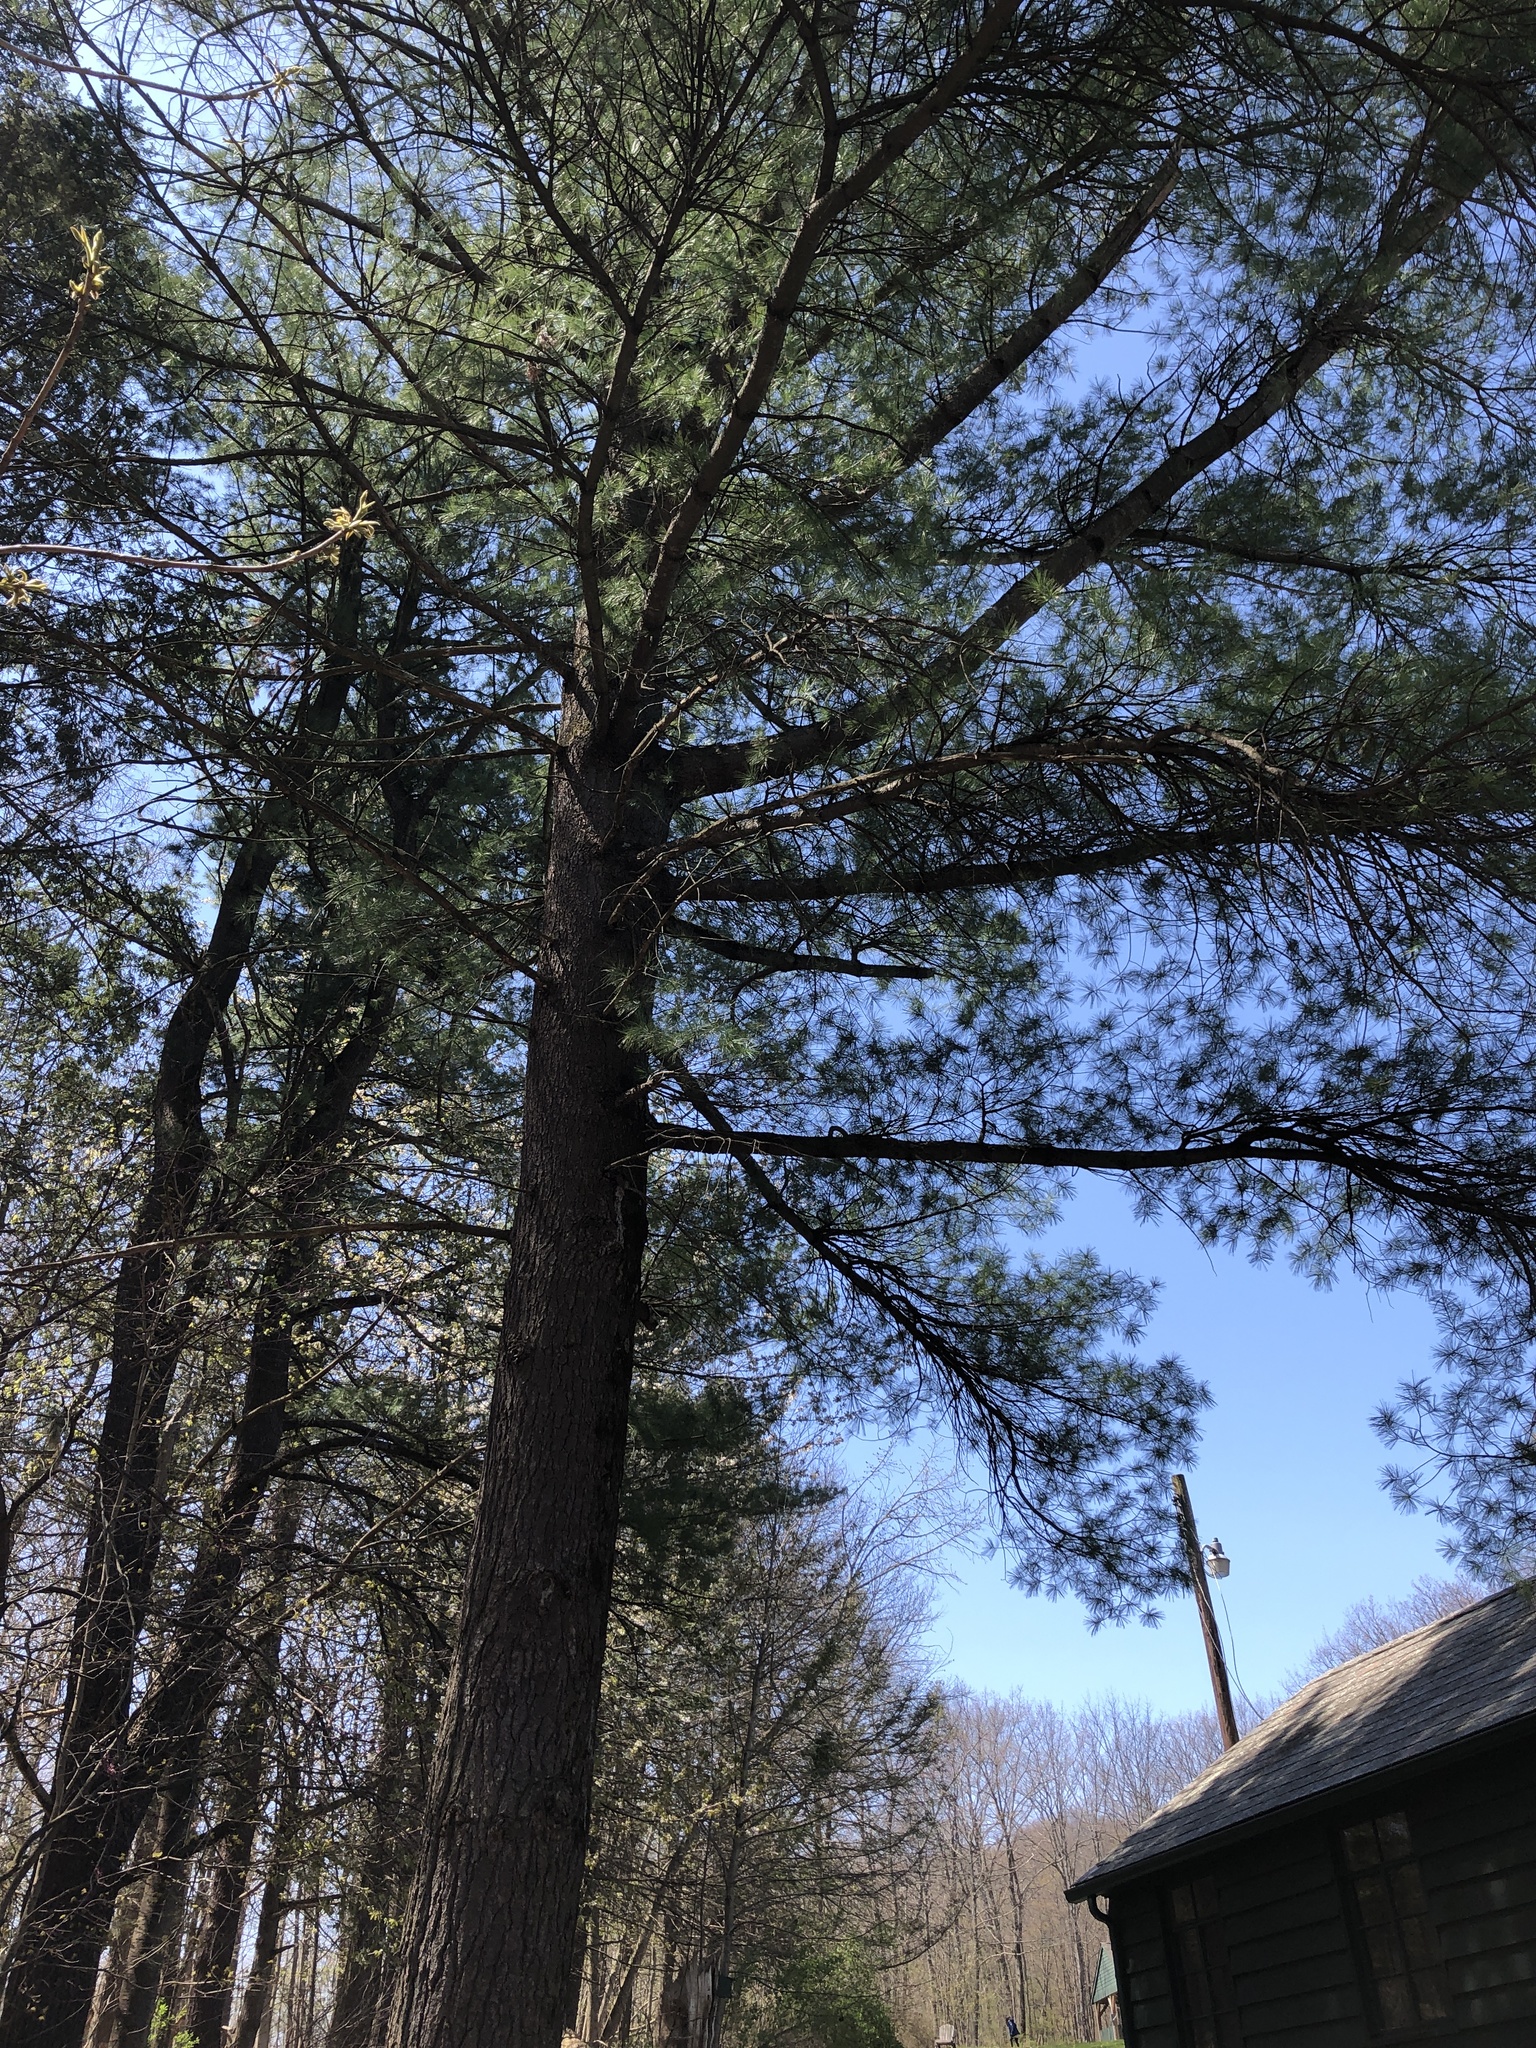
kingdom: Plantae
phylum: Tracheophyta
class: Pinopsida
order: Pinales
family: Pinaceae
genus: Pinus
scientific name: Pinus strobus
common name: Weymouth pine
